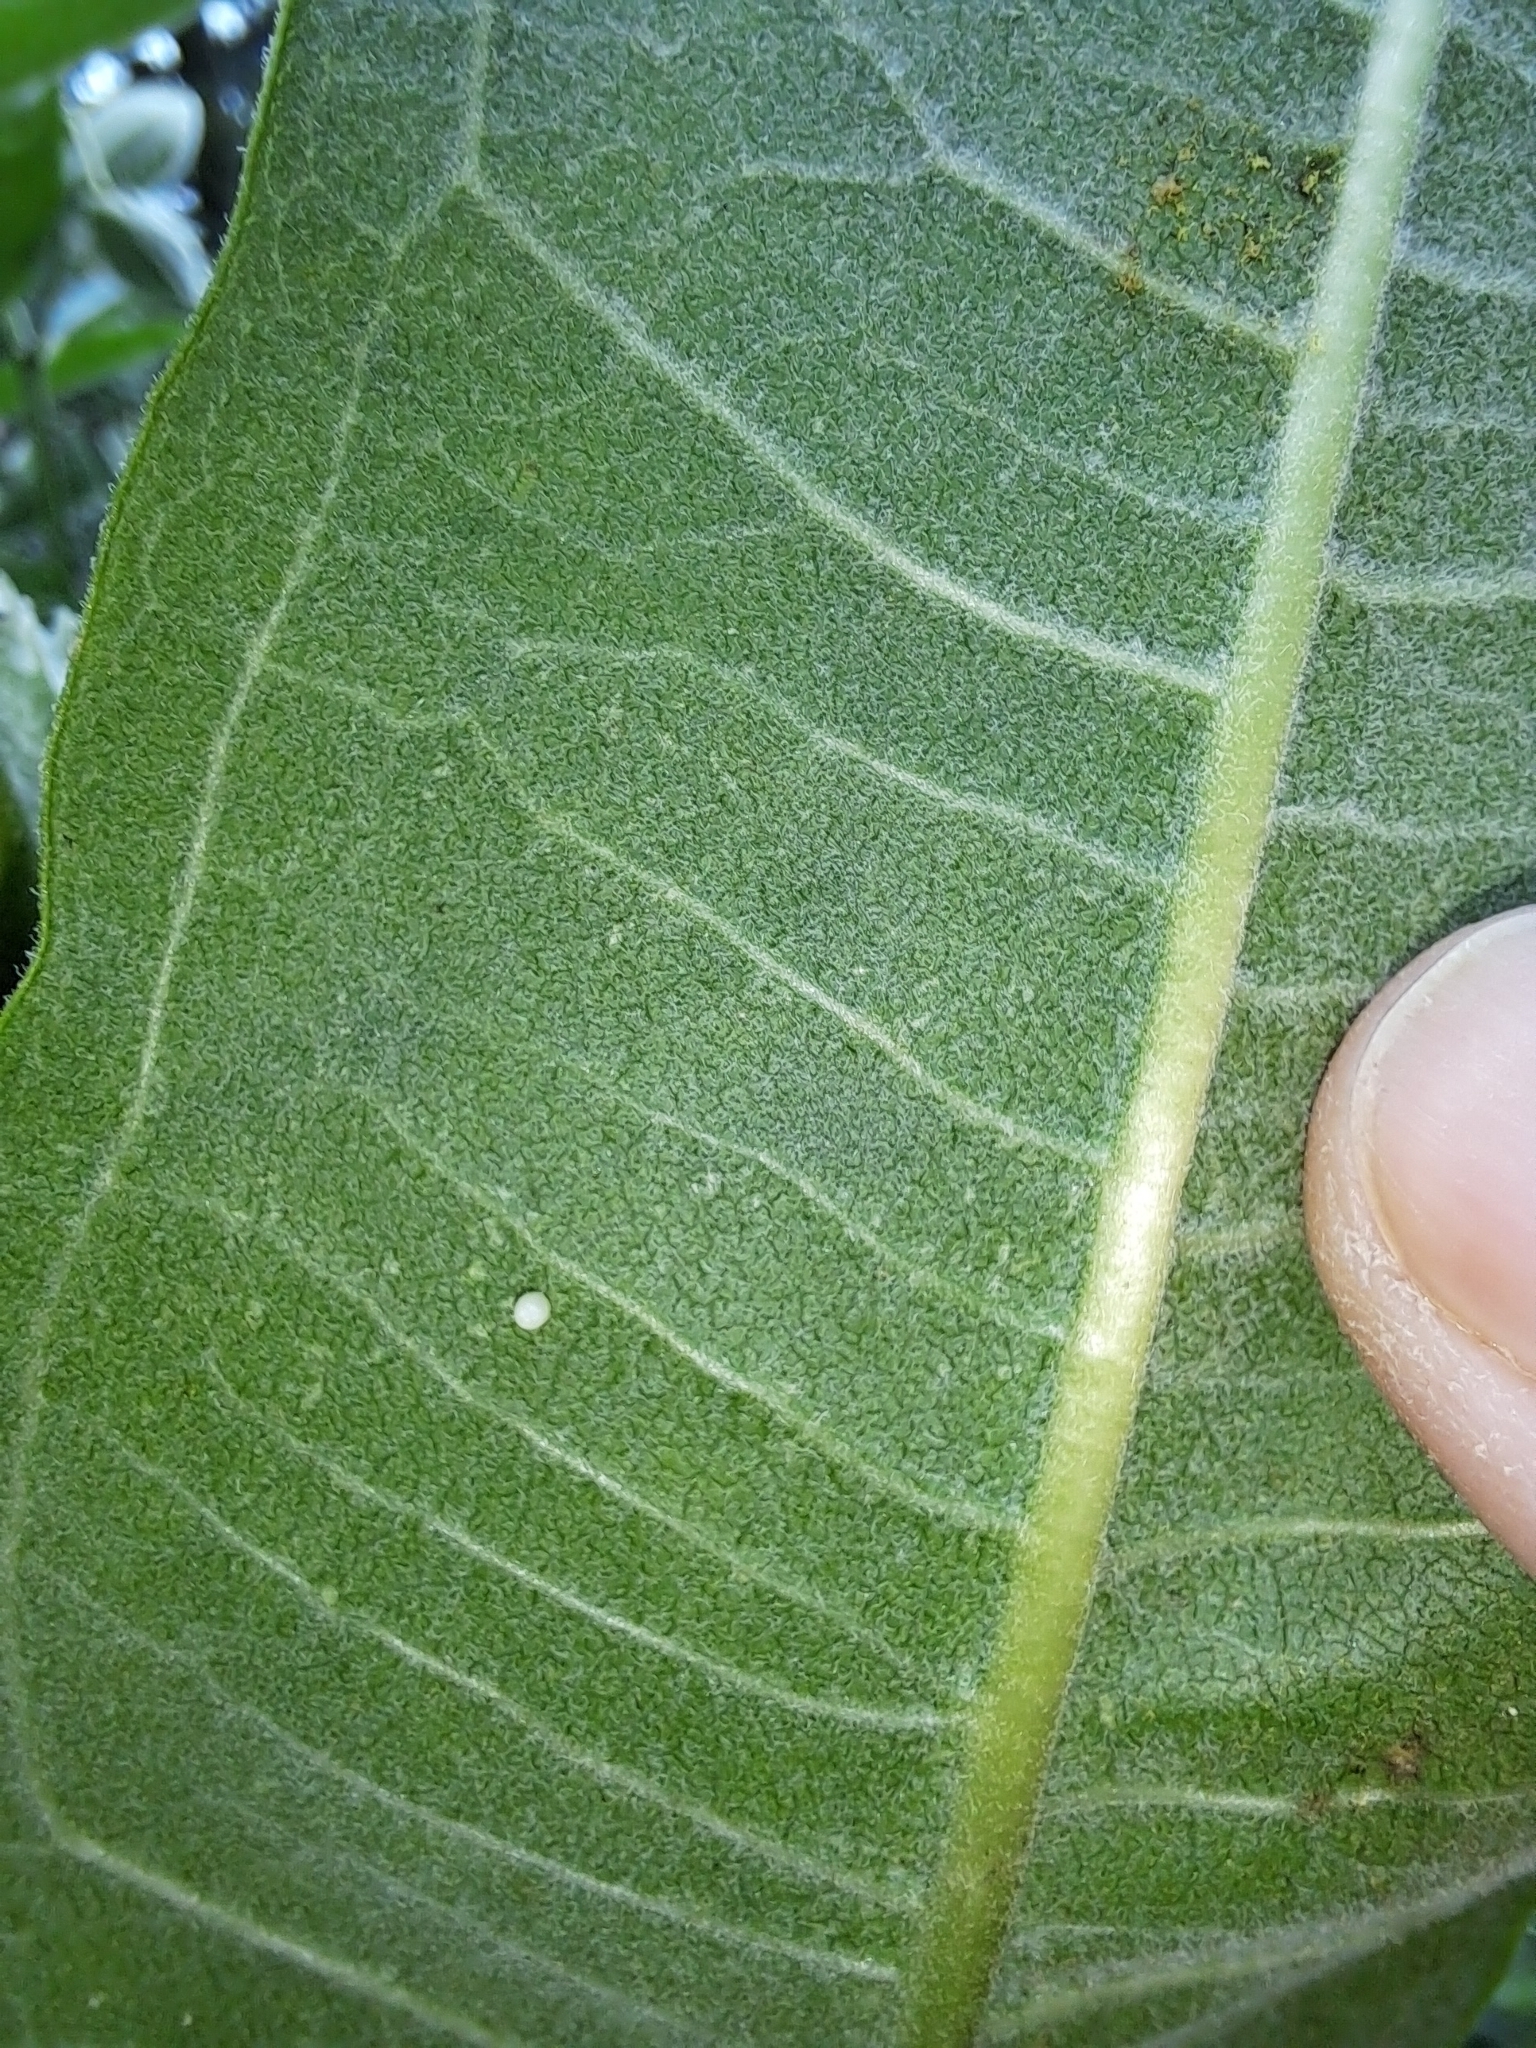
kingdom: Animalia
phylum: Arthropoda
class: Insecta
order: Lepidoptera
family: Nymphalidae
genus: Danaus
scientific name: Danaus plexippus
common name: Monarch
